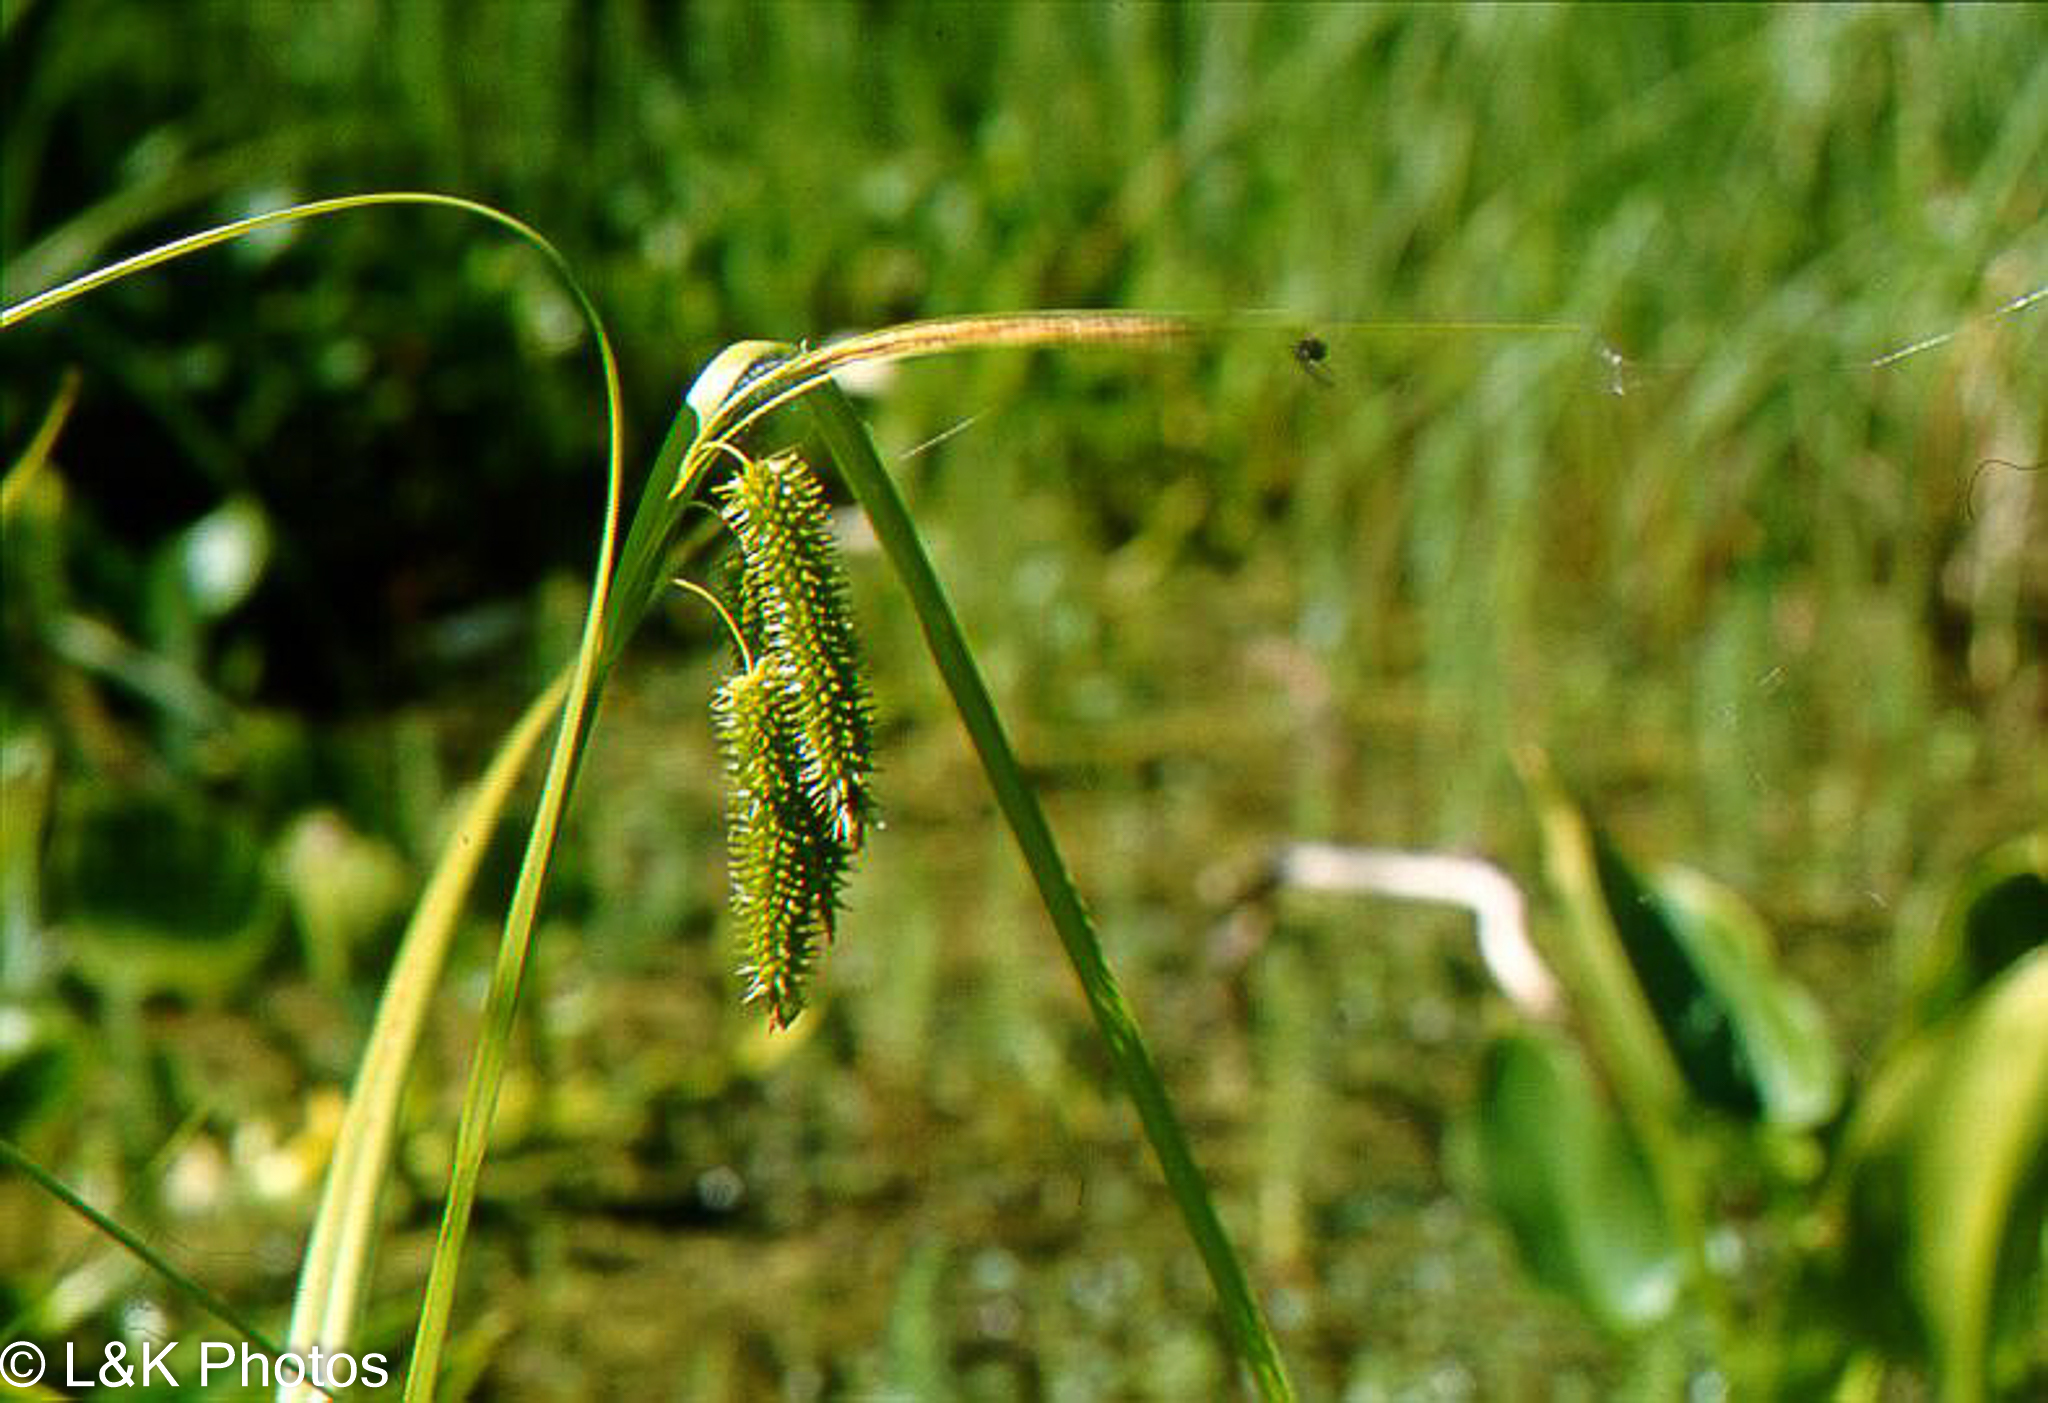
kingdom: Plantae
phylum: Tracheophyta
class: Liliopsida
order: Poales
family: Cyperaceae
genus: Carex
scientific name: Carex pseudocyperus
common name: Cyperus sedge
